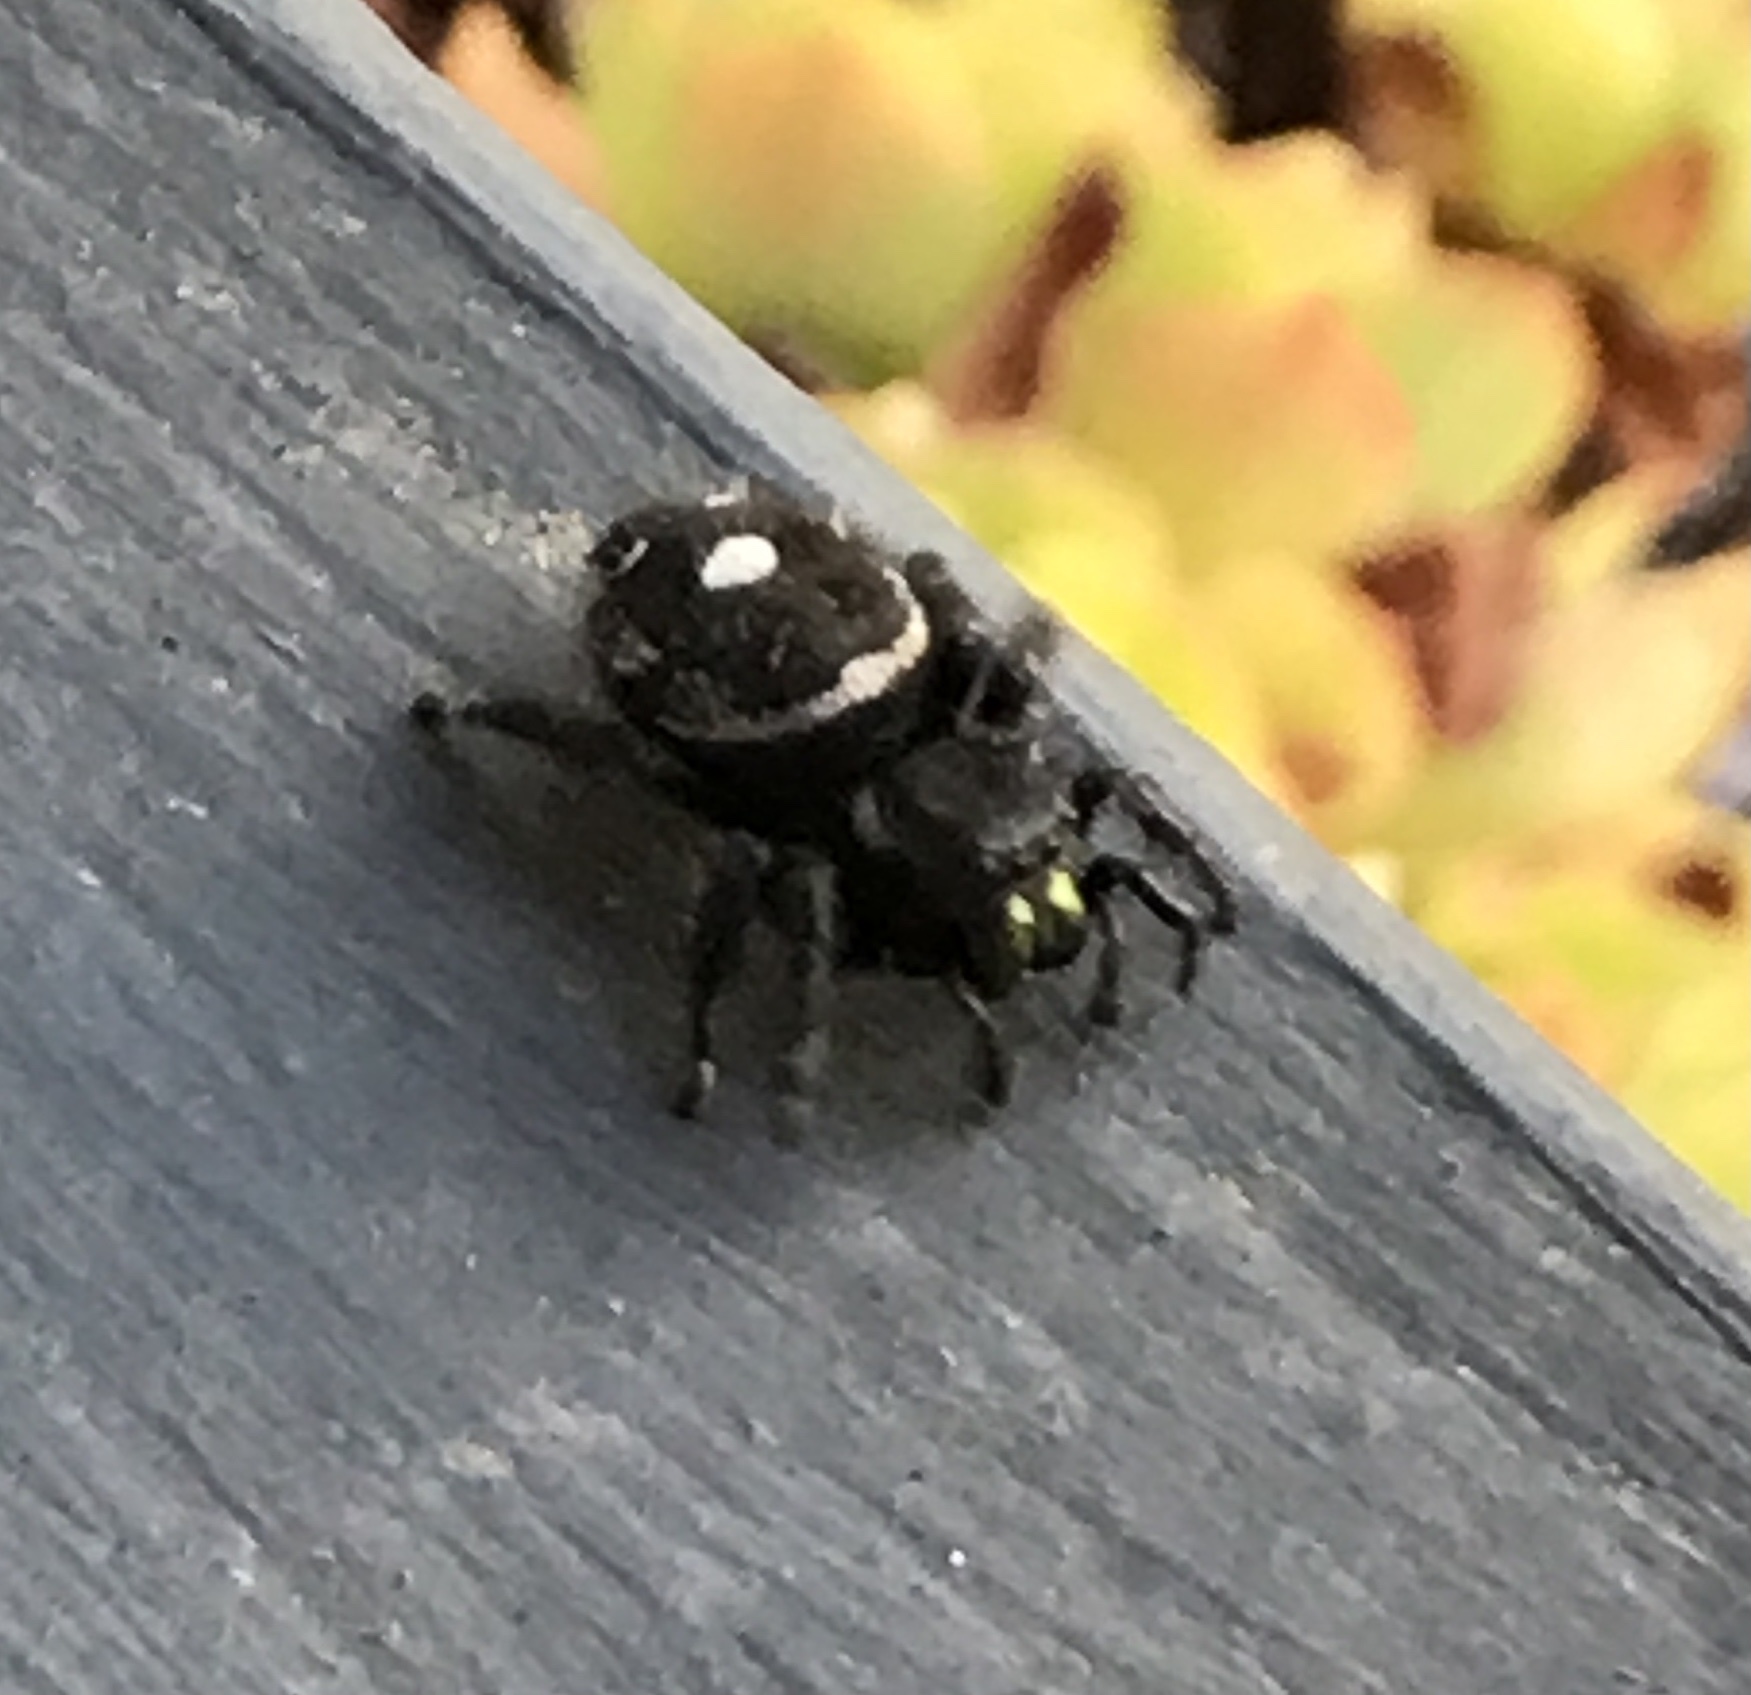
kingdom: Animalia
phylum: Arthropoda
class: Arachnida
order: Araneae
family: Salticidae
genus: Phidippus
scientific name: Phidippus audax
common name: Bold jumper
